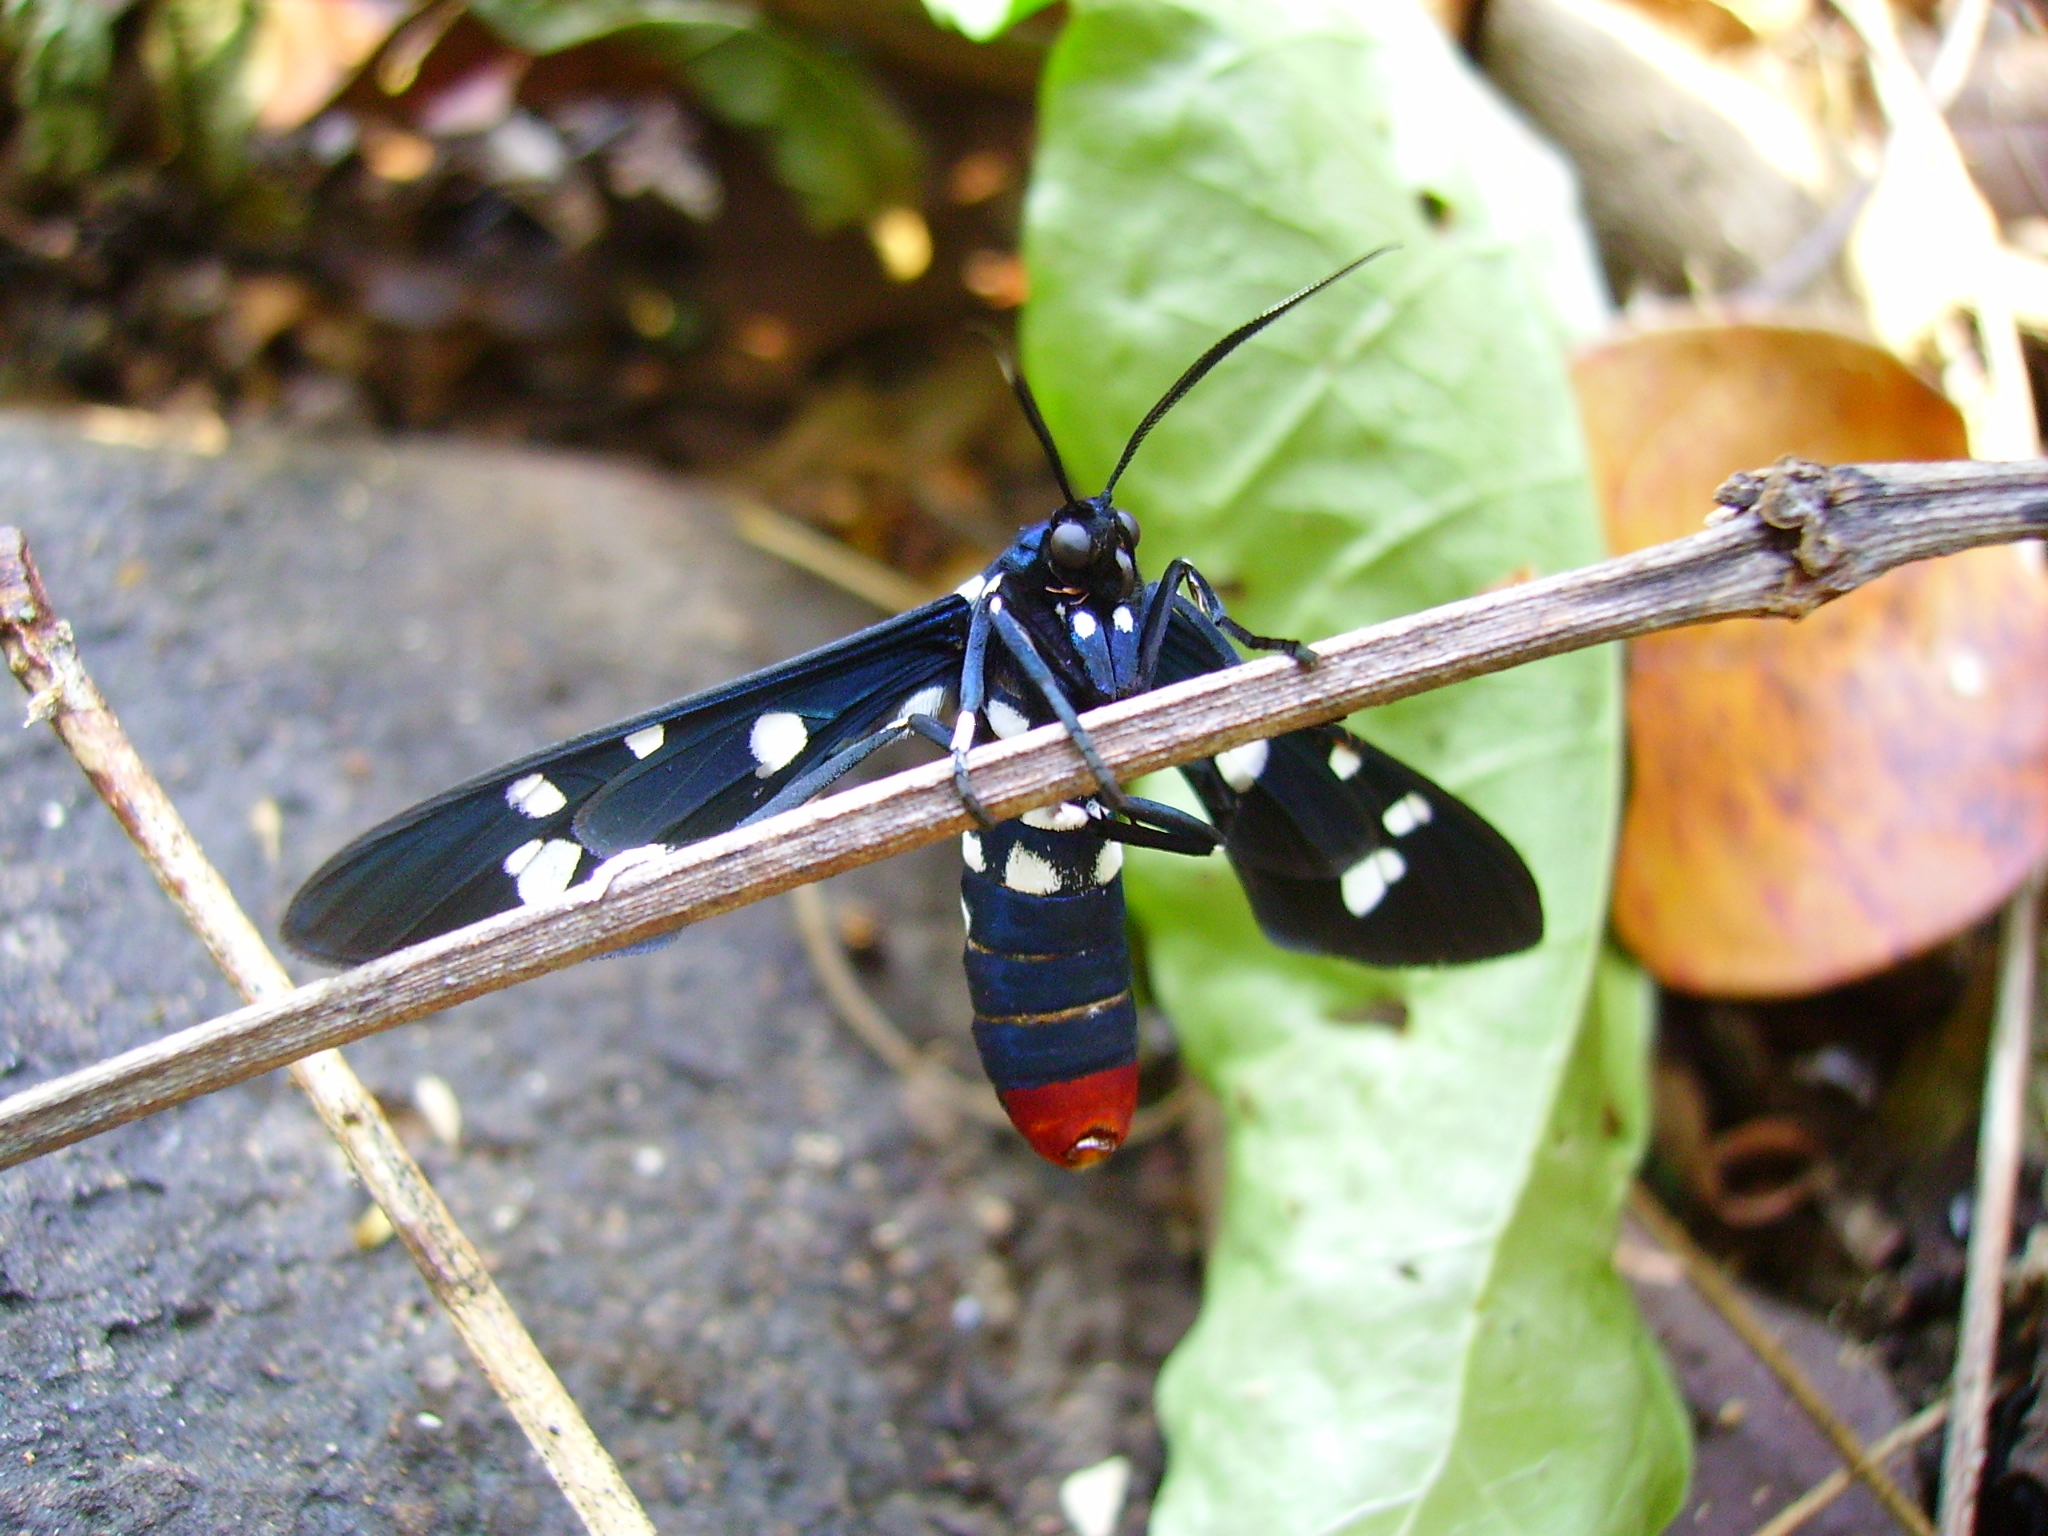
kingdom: Animalia
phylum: Arthropoda
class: Insecta
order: Lepidoptera
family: Erebidae
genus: Syntomeida
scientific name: Syntomeida epilais
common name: Polka-dot wasp moth
